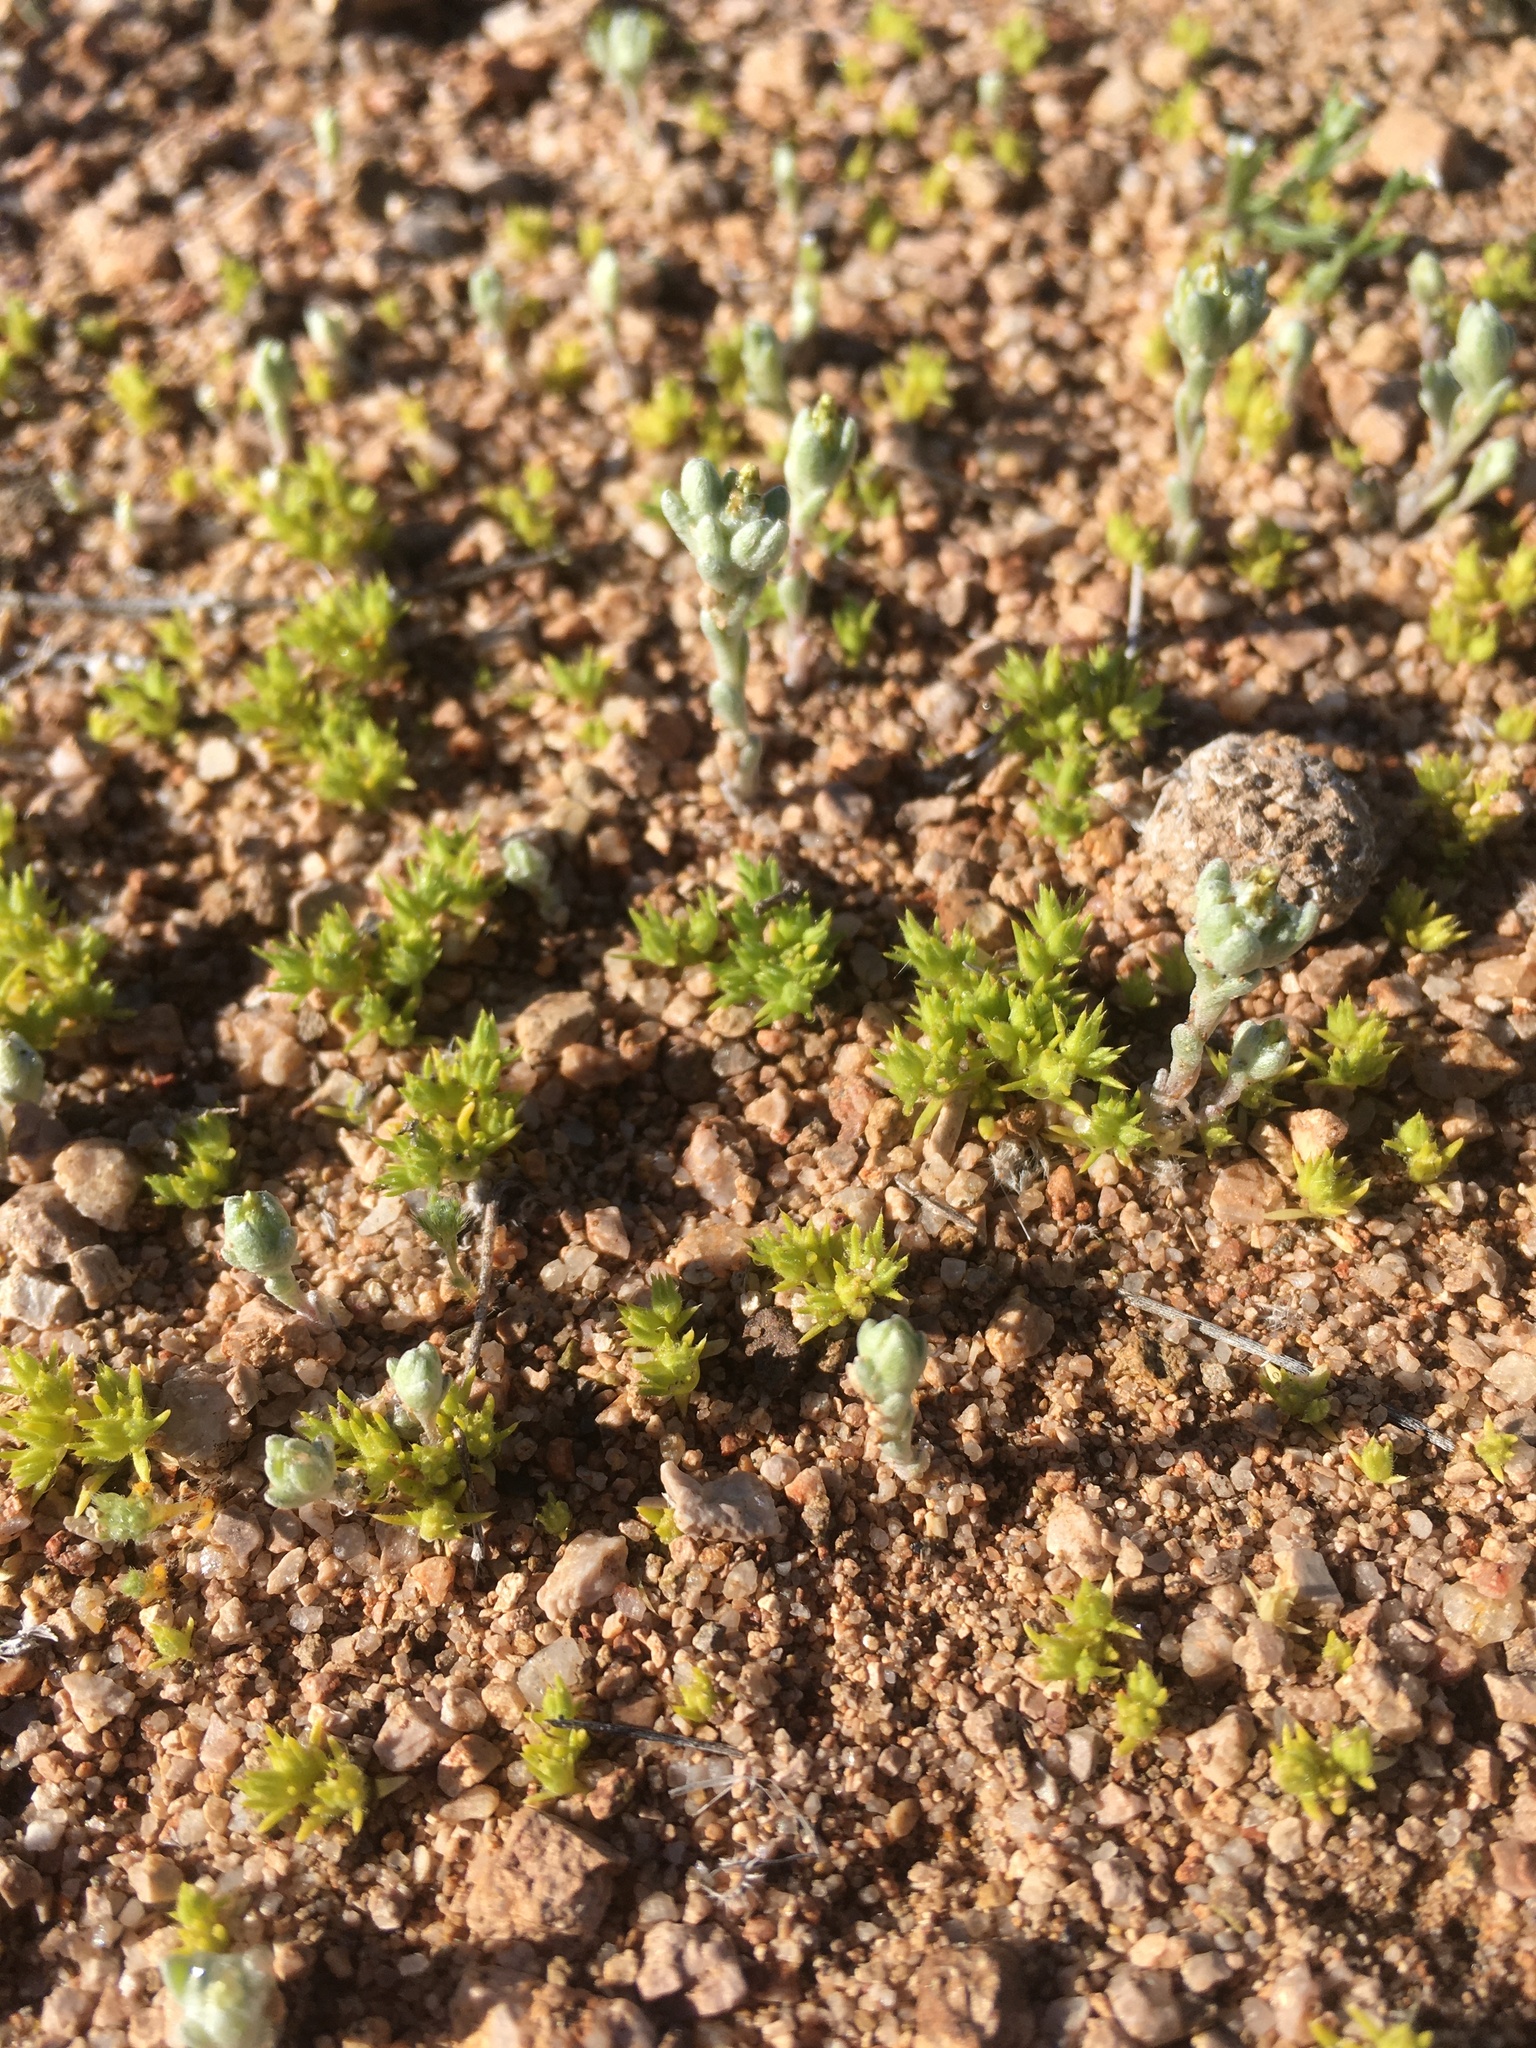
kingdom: Plantae
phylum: Tracheophyta
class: Magnoliopsida
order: Caryophyllales
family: Caryophyllaceae
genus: Loeflingia
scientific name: Loeflingia squarrosa
